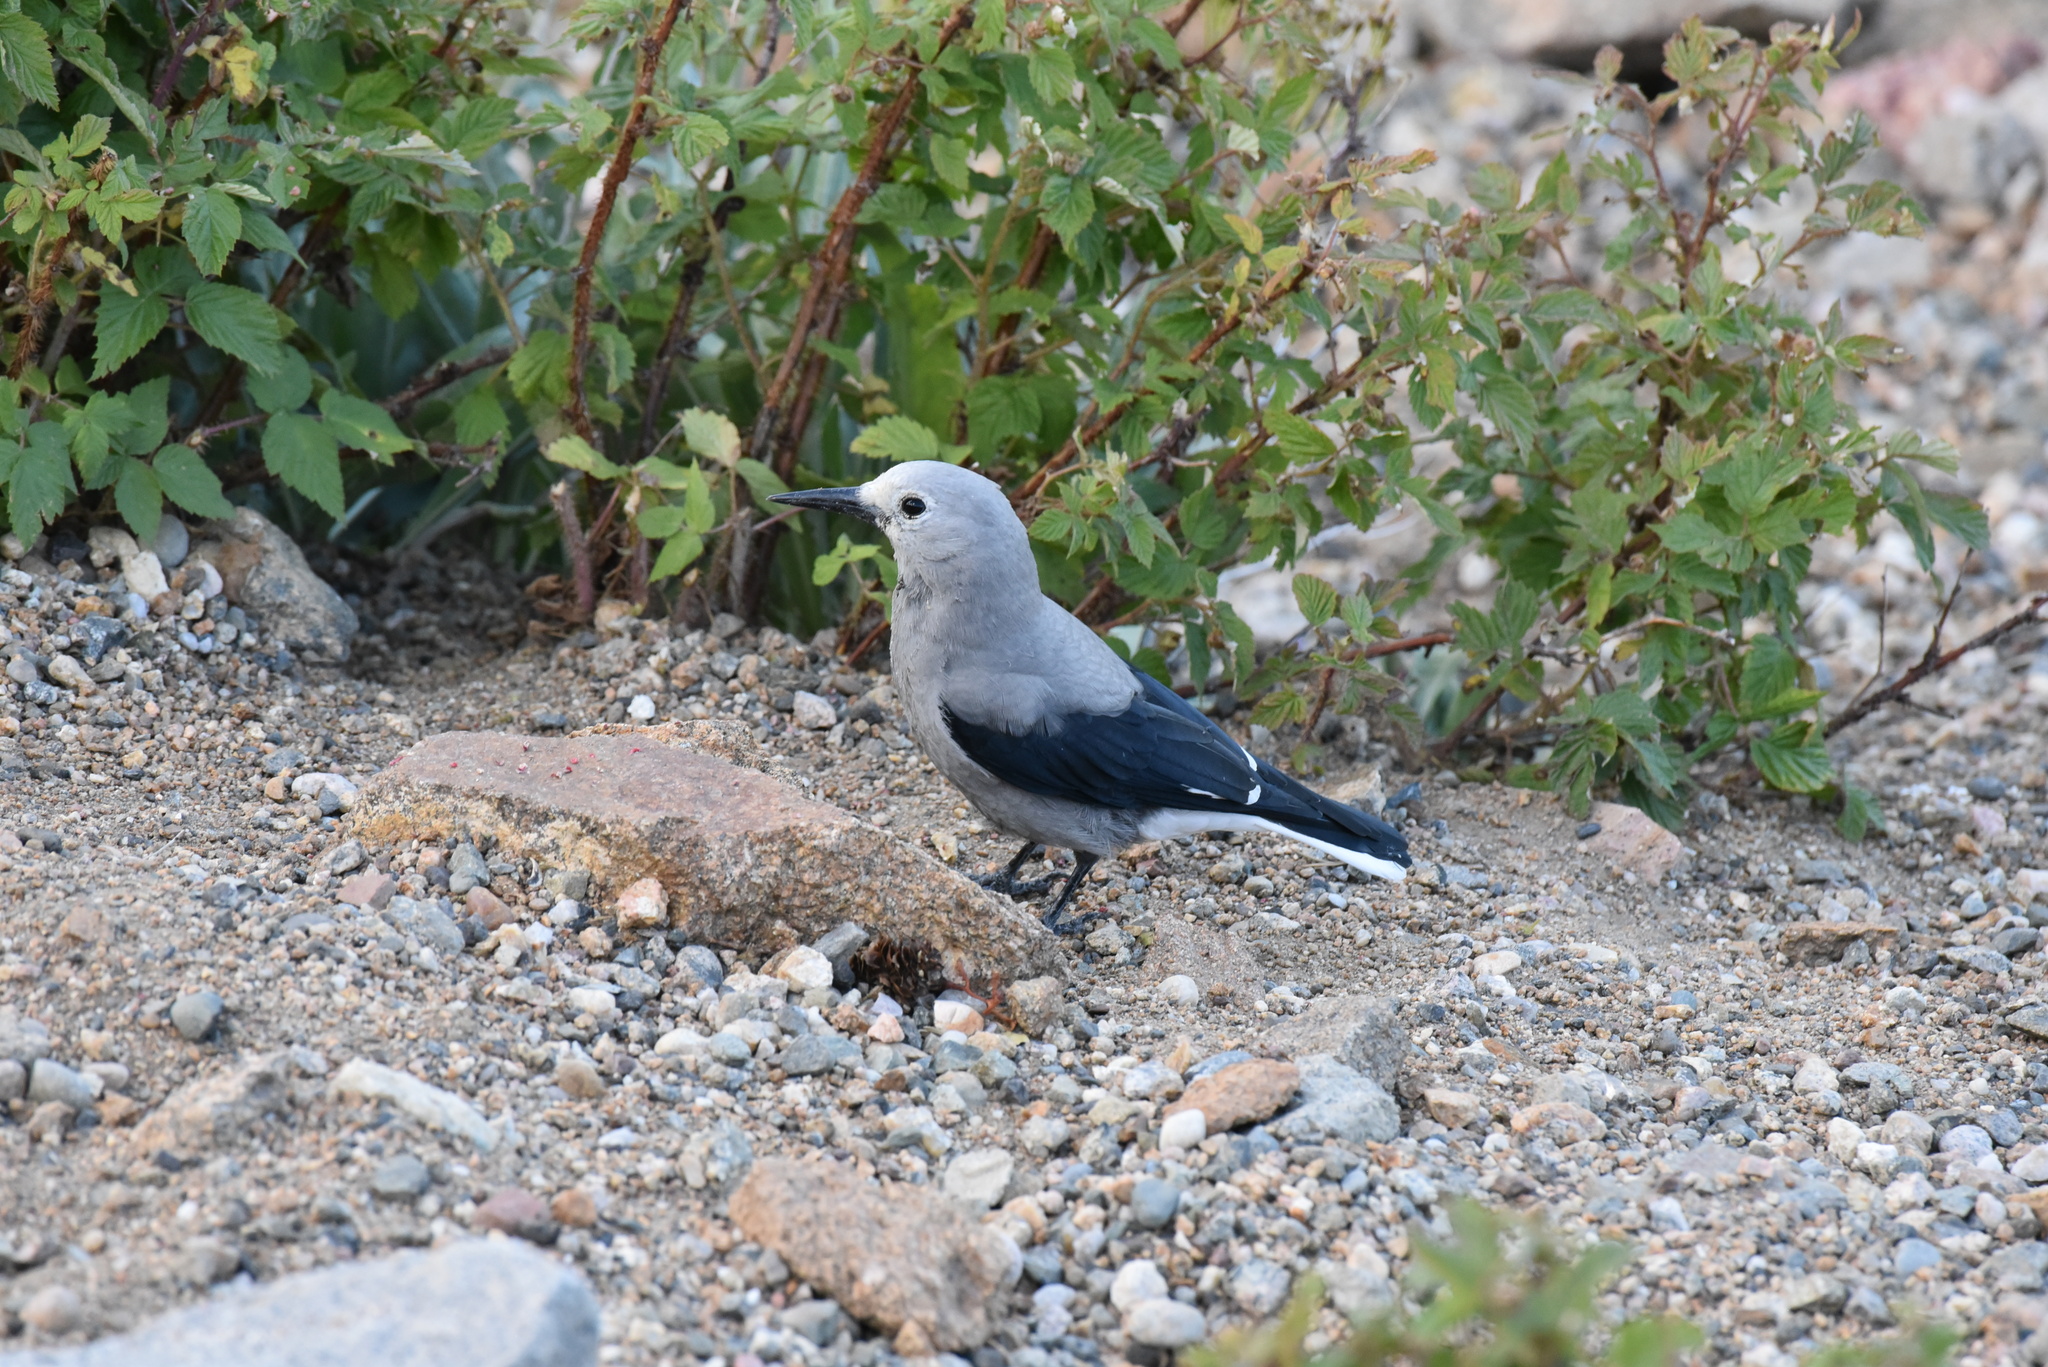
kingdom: Animalia
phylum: Chordata
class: Aves
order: Passeriformes
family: Corvidae
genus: Nucifraga
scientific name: Nucifraga columbiana
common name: Clark's nutcracker
